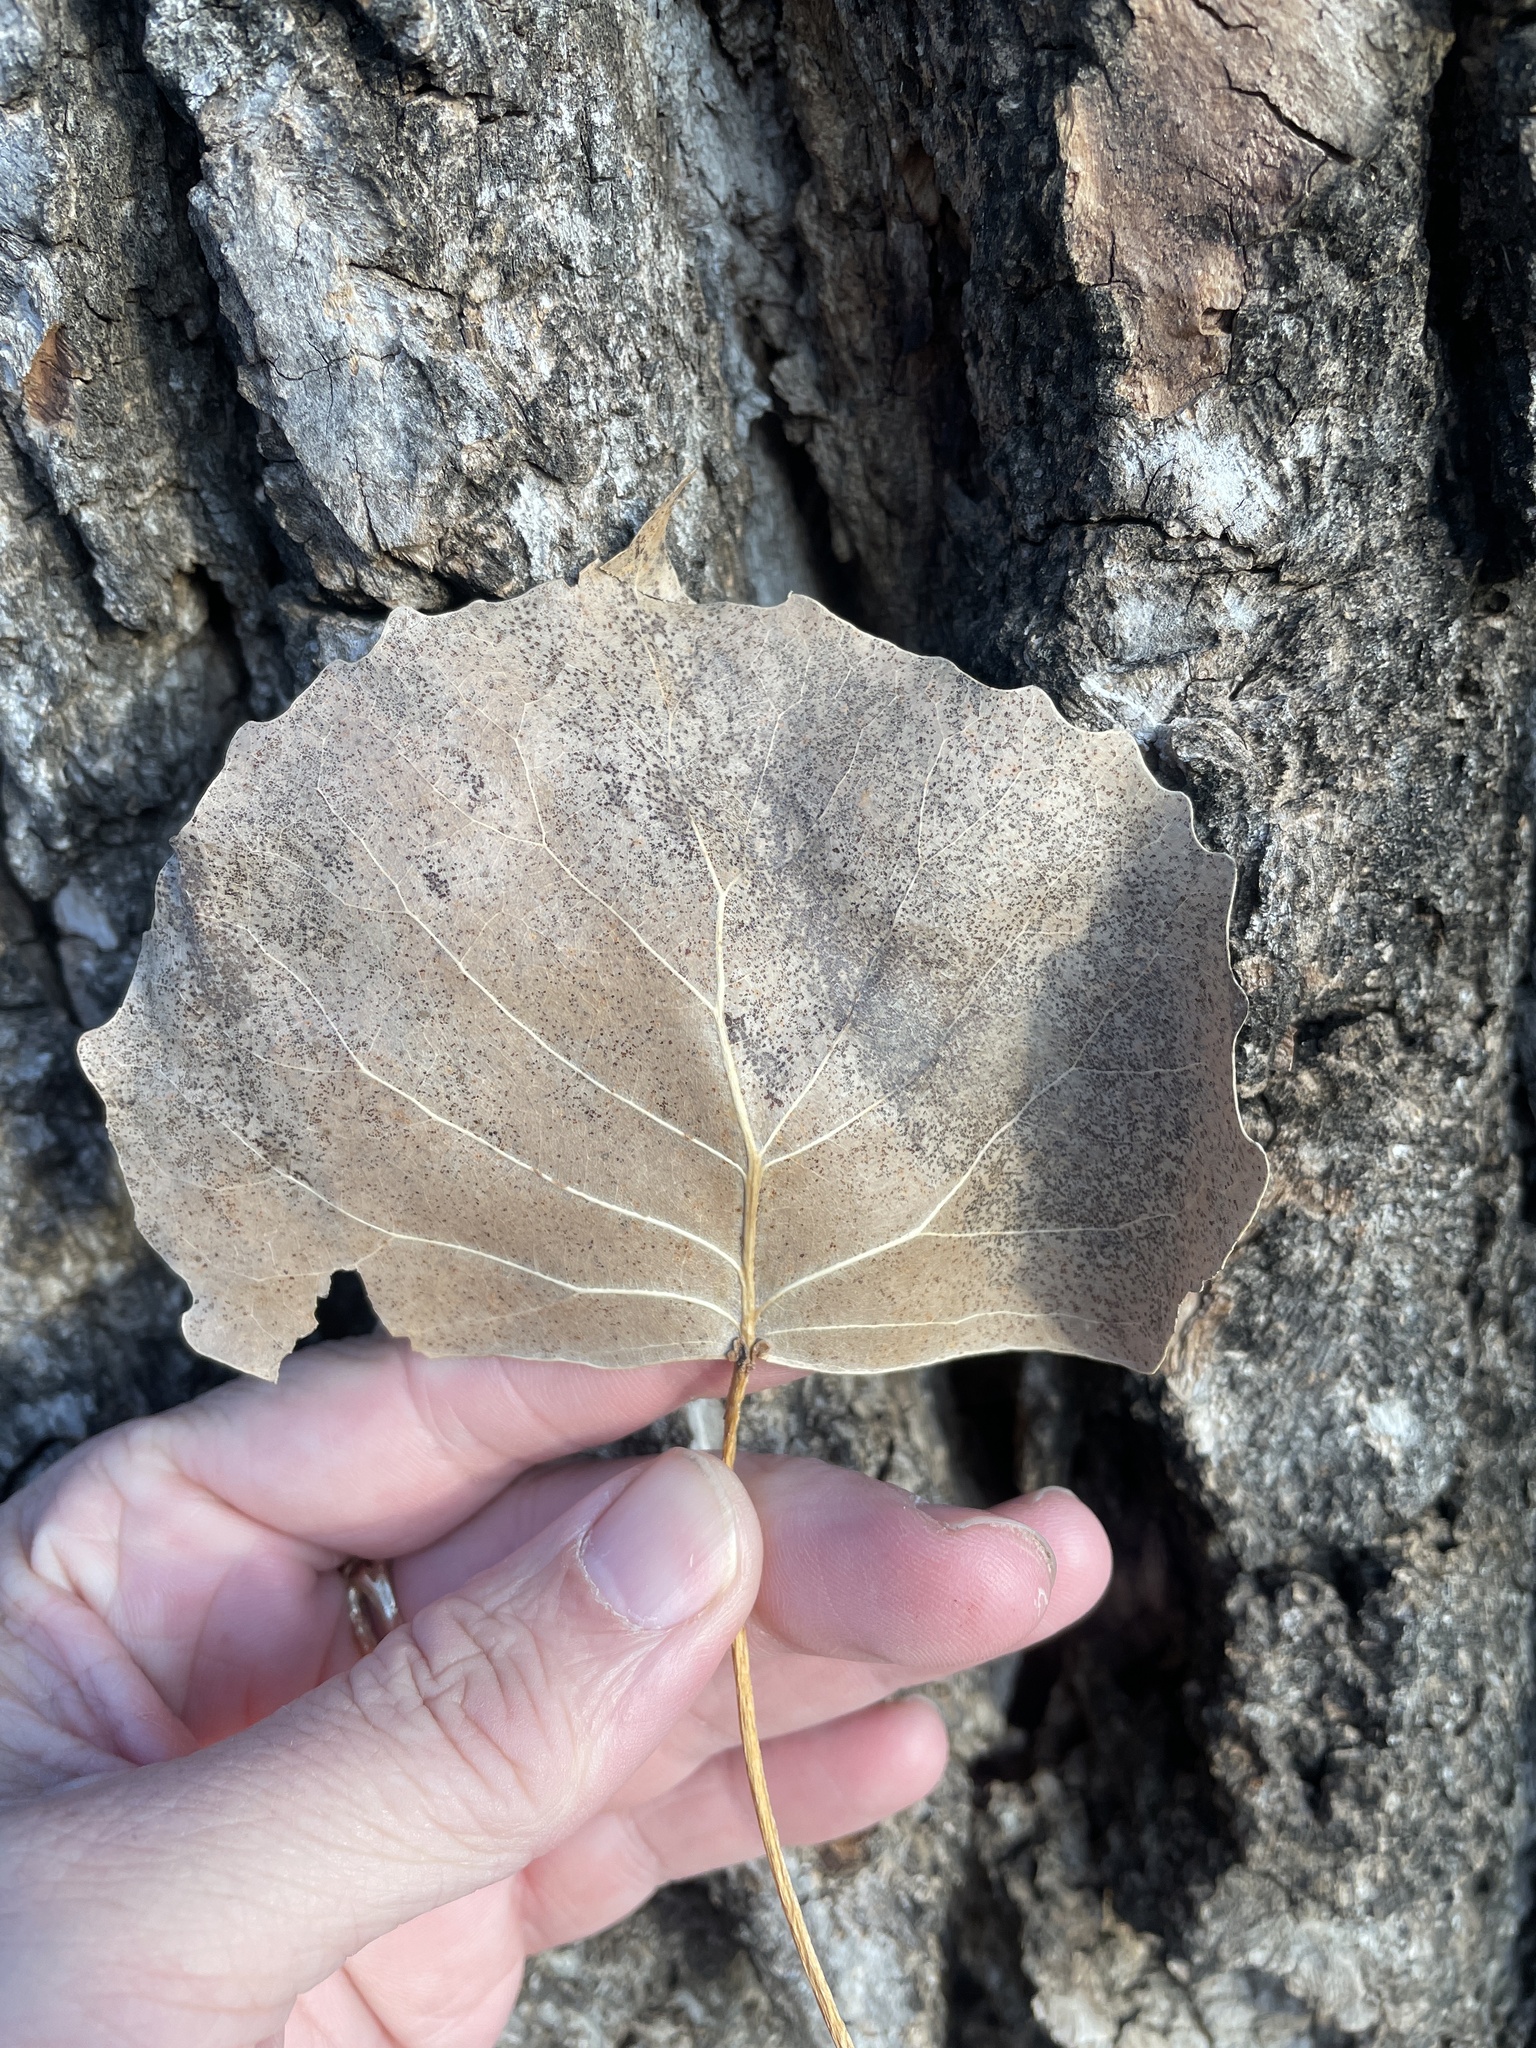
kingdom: Plantae
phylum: Tracheophyta
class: Magnoliopsida
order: Malpighiales
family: Salicaceae
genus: Populus
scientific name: Populus deltoides
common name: Eastern cottonwood
